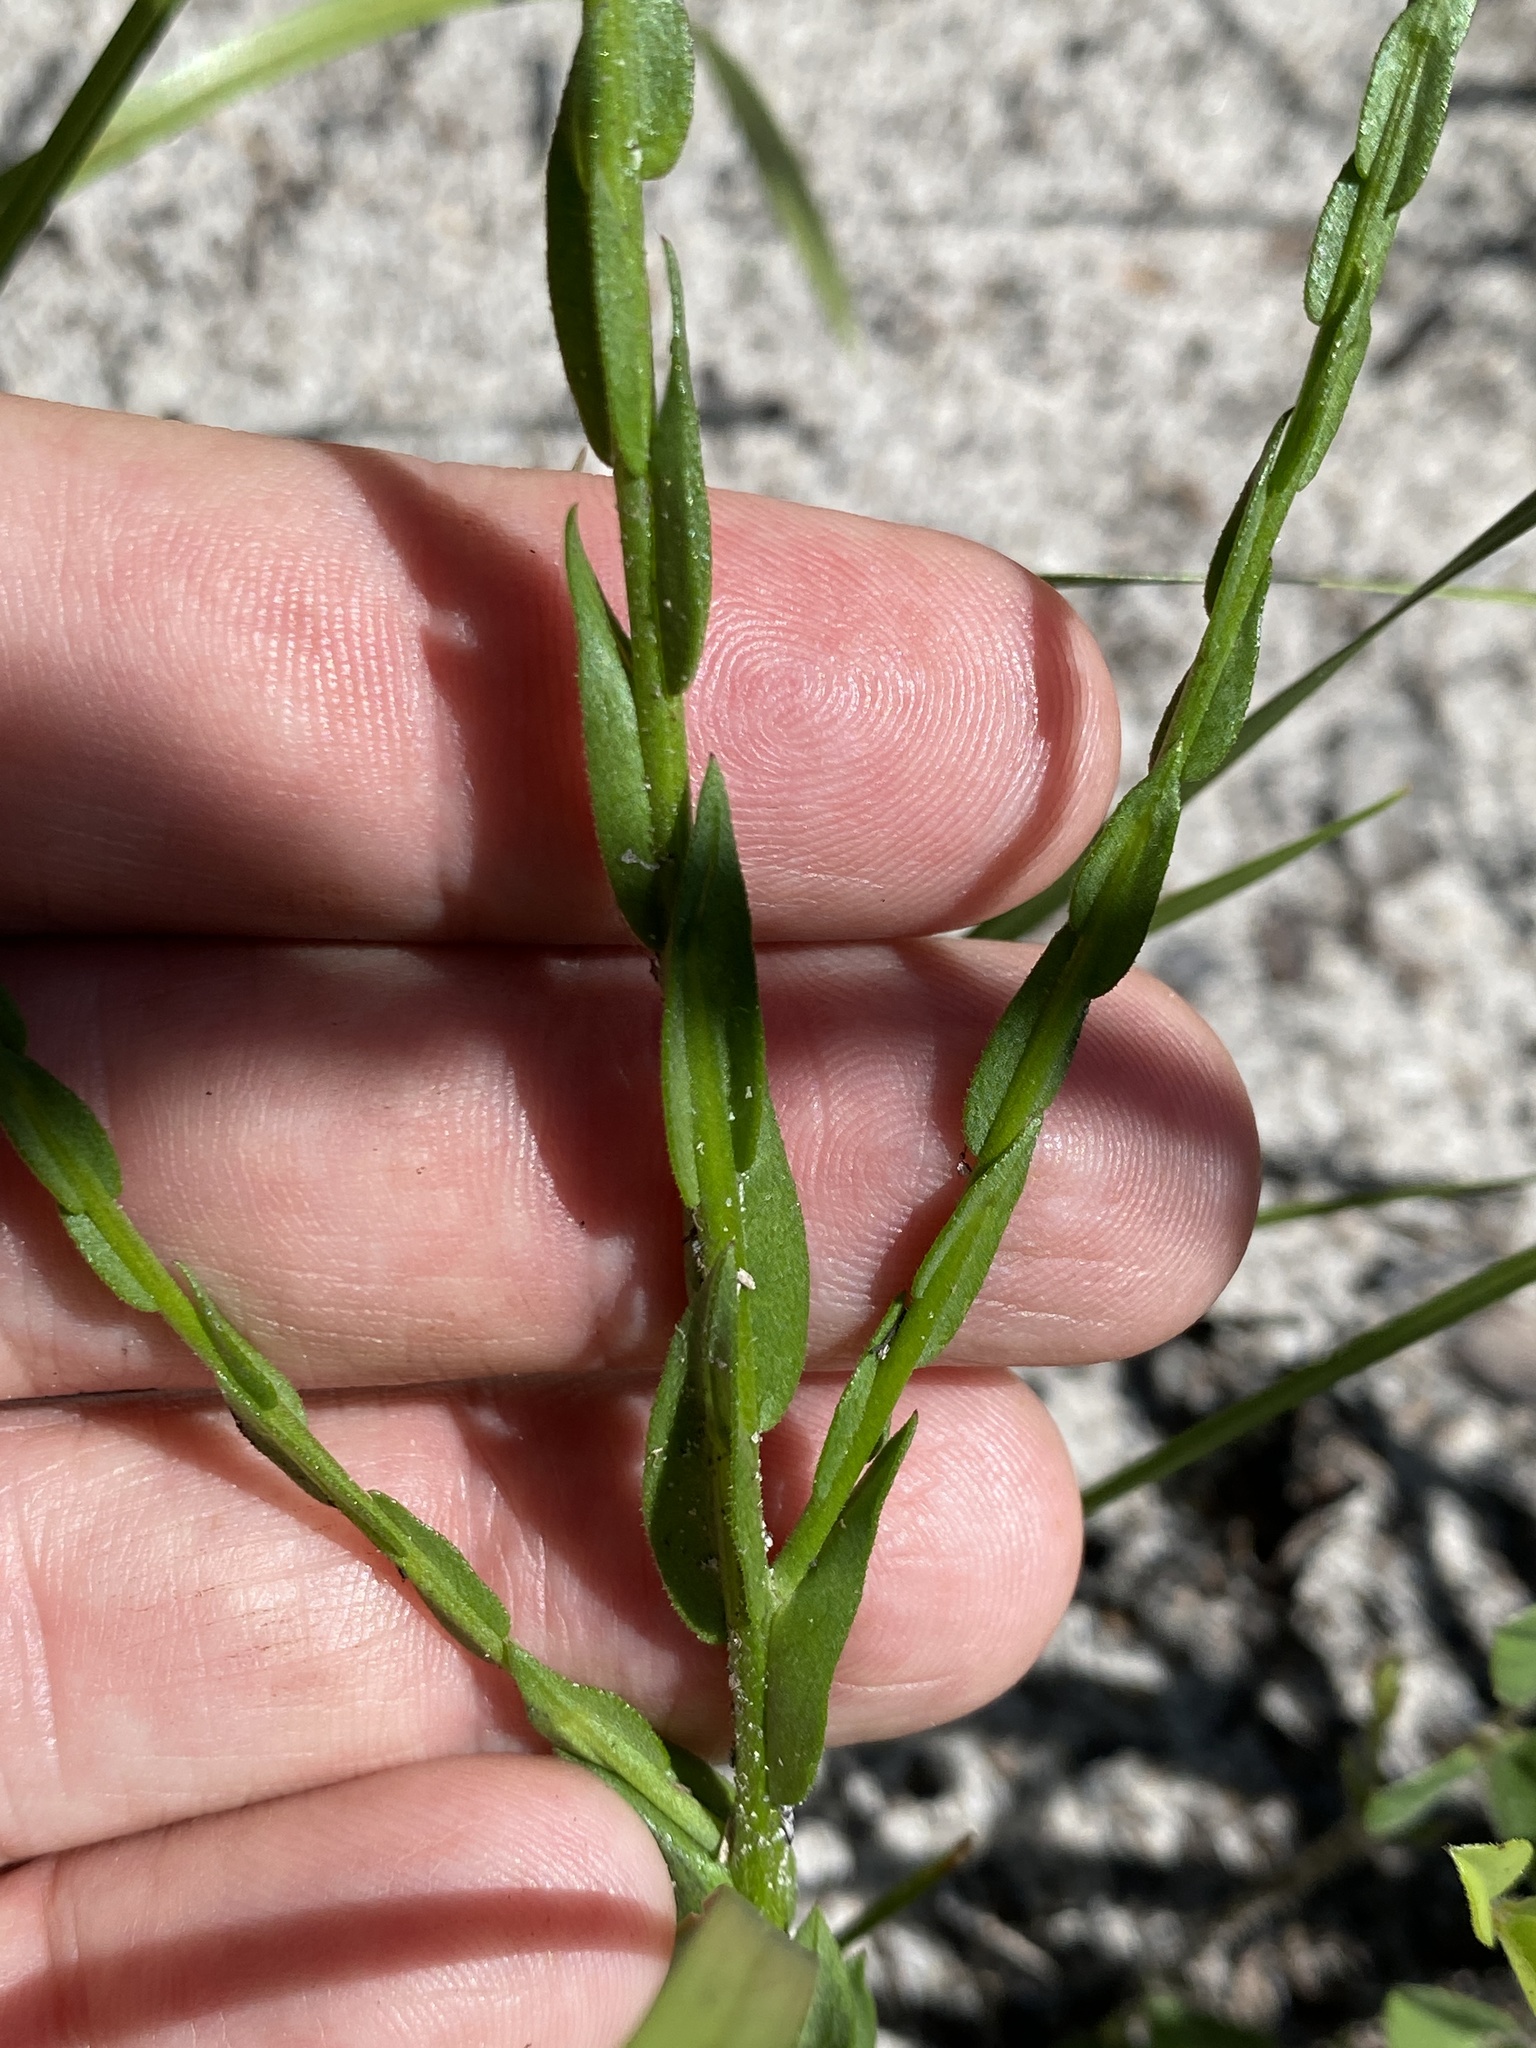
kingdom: Plantae
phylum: Tracheophyta
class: Magnoliopsida
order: Asterales
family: Asteraceae
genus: Symphyotrichum
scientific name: Symphyotrichum adnatum
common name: Scale-leaf aster
